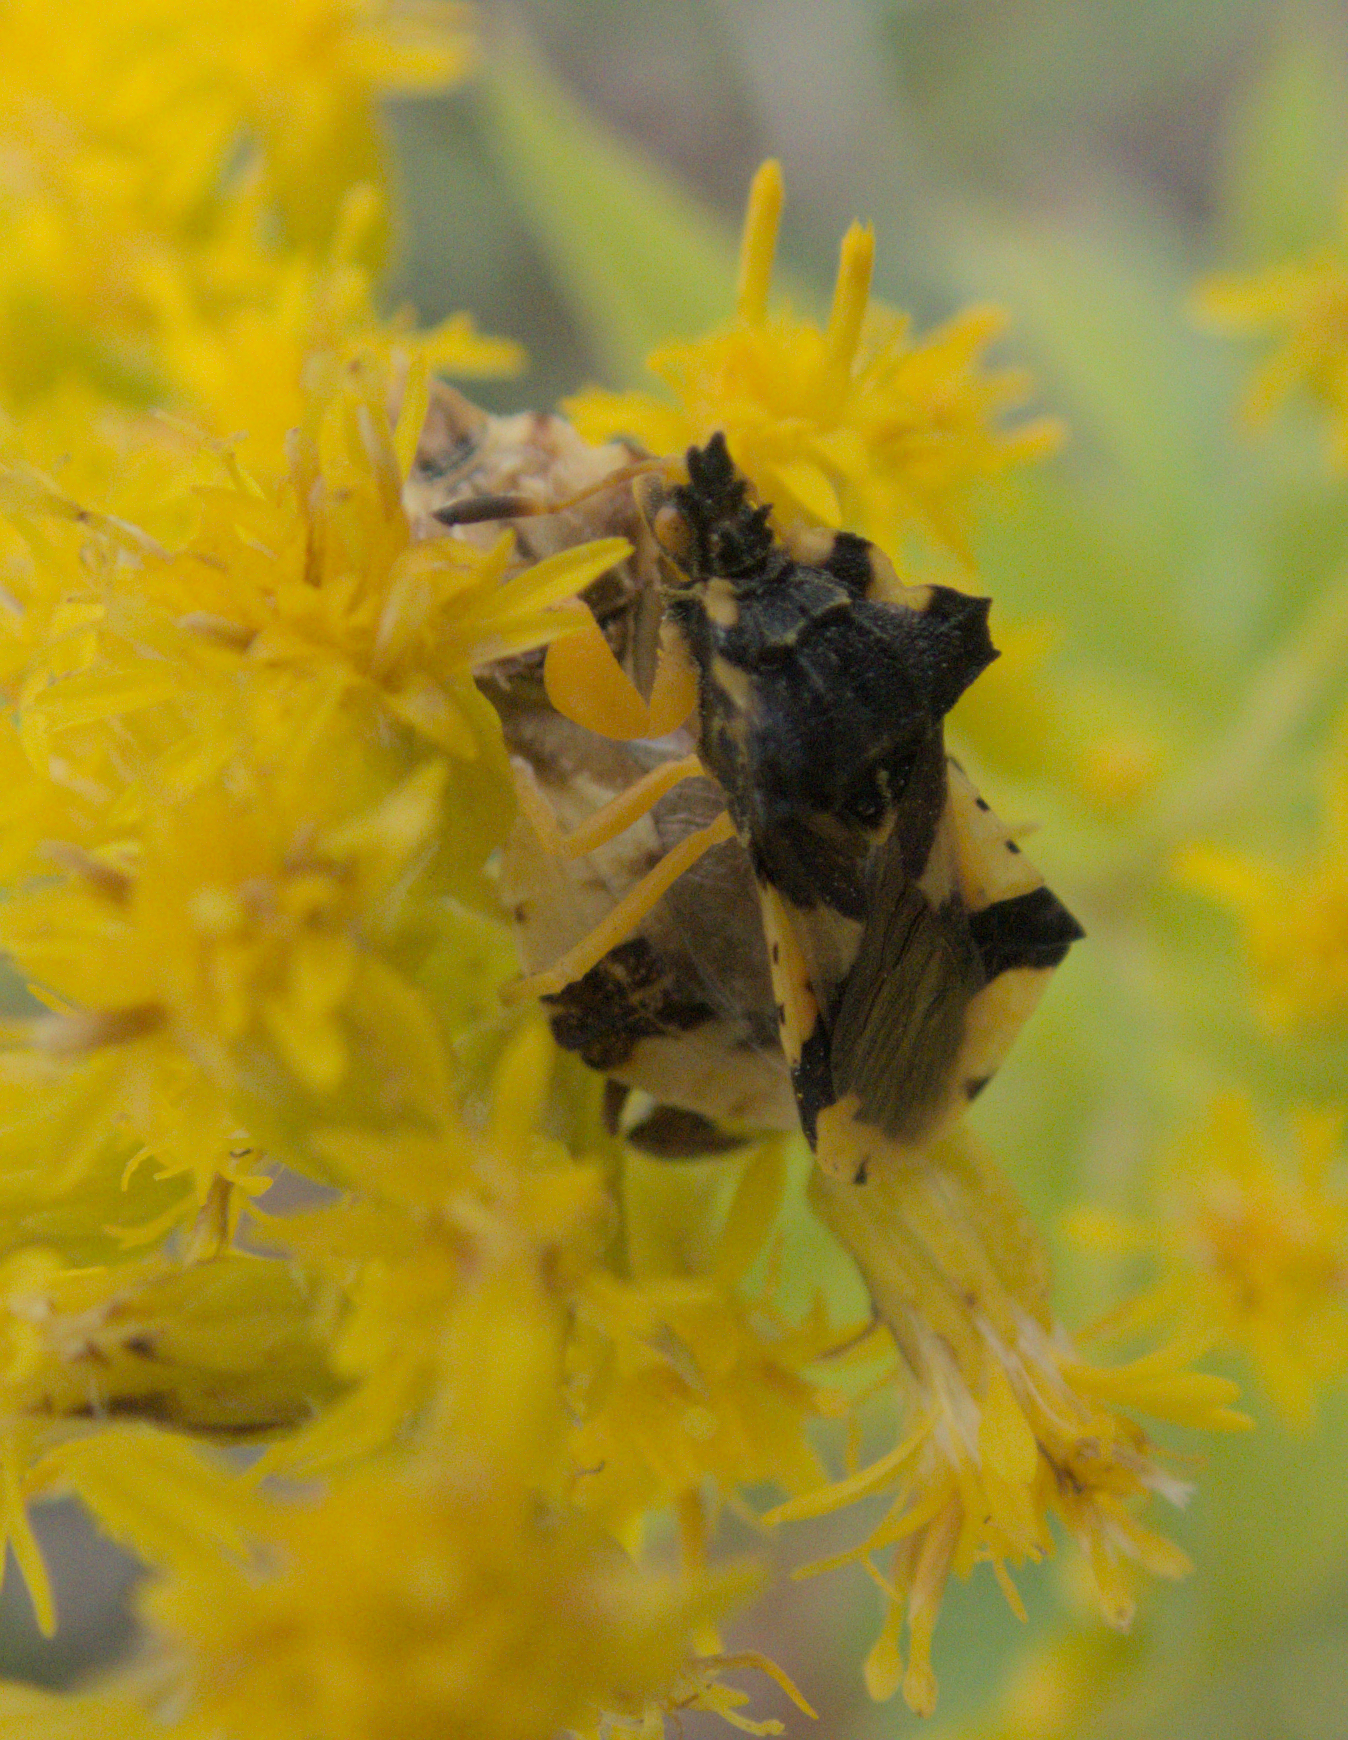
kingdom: Animalia
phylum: Arthropoda
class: Insecta
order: Hemiptera
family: Reduviidae
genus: Phymata
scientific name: Phymata americana
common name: Jagged ambush bug
